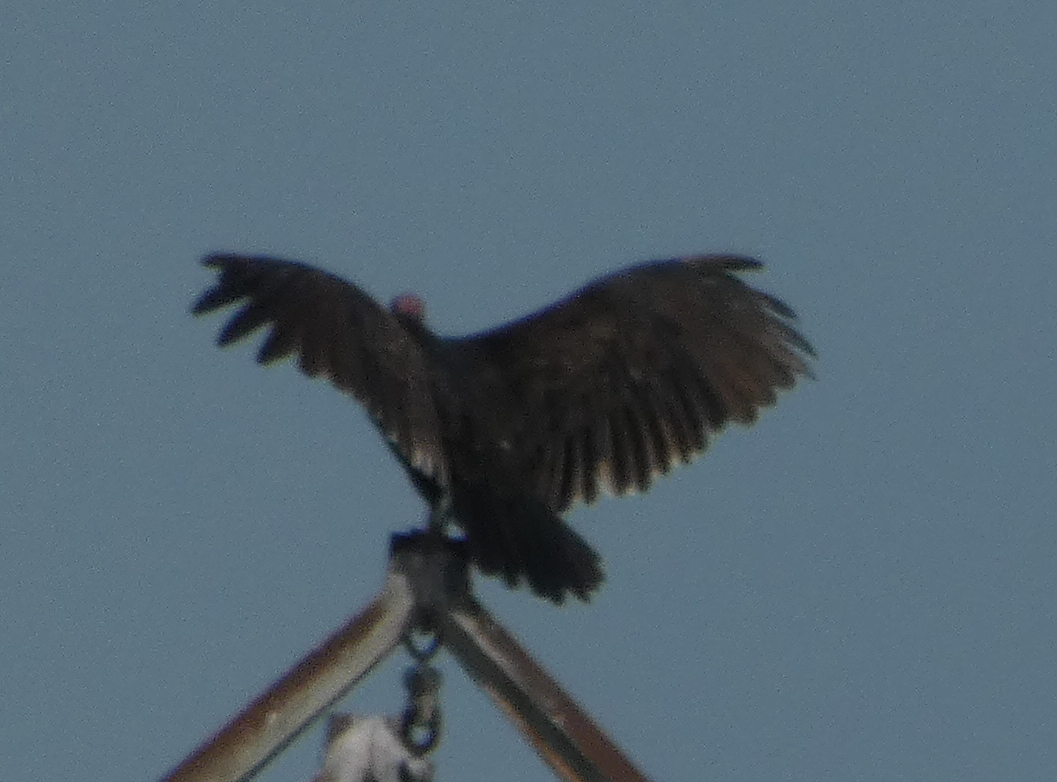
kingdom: Animalia
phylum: Chordata
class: Aves
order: Accipitriformes
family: Cathartidae
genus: Cathartes
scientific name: Cathartes aura
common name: Turkey vulture
